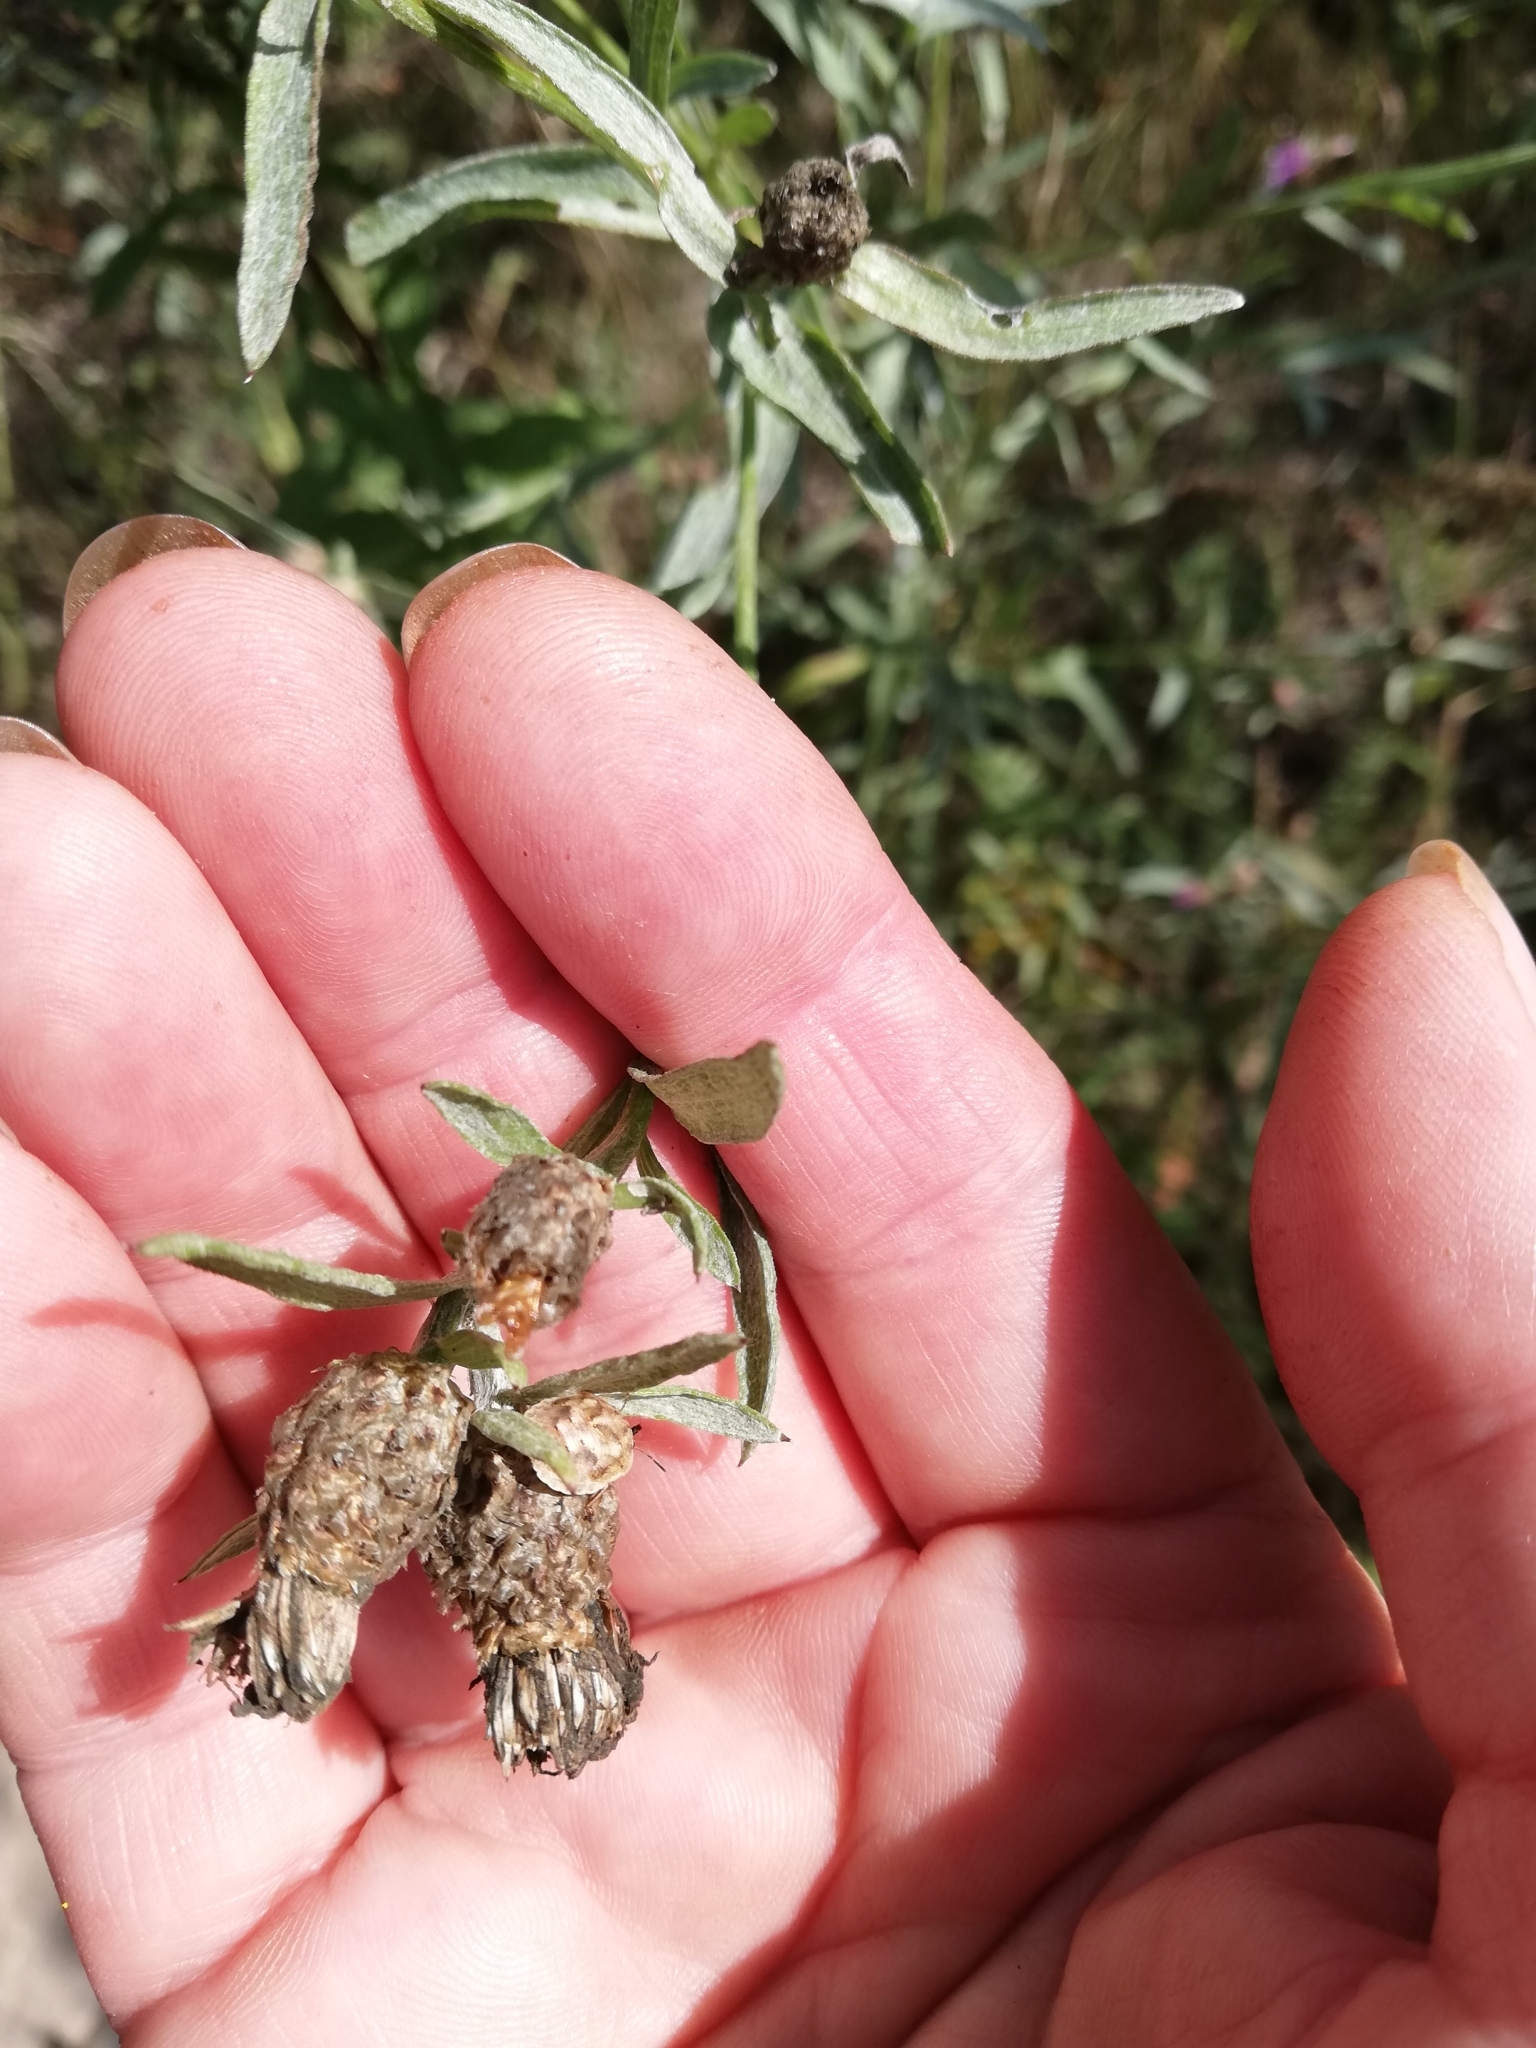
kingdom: Plantae
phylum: Tracheophyta
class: Magnoliopsida
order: Asterales
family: Asteraceae
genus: Centaurea
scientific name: Centaurea jacea
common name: Brown knapweed
